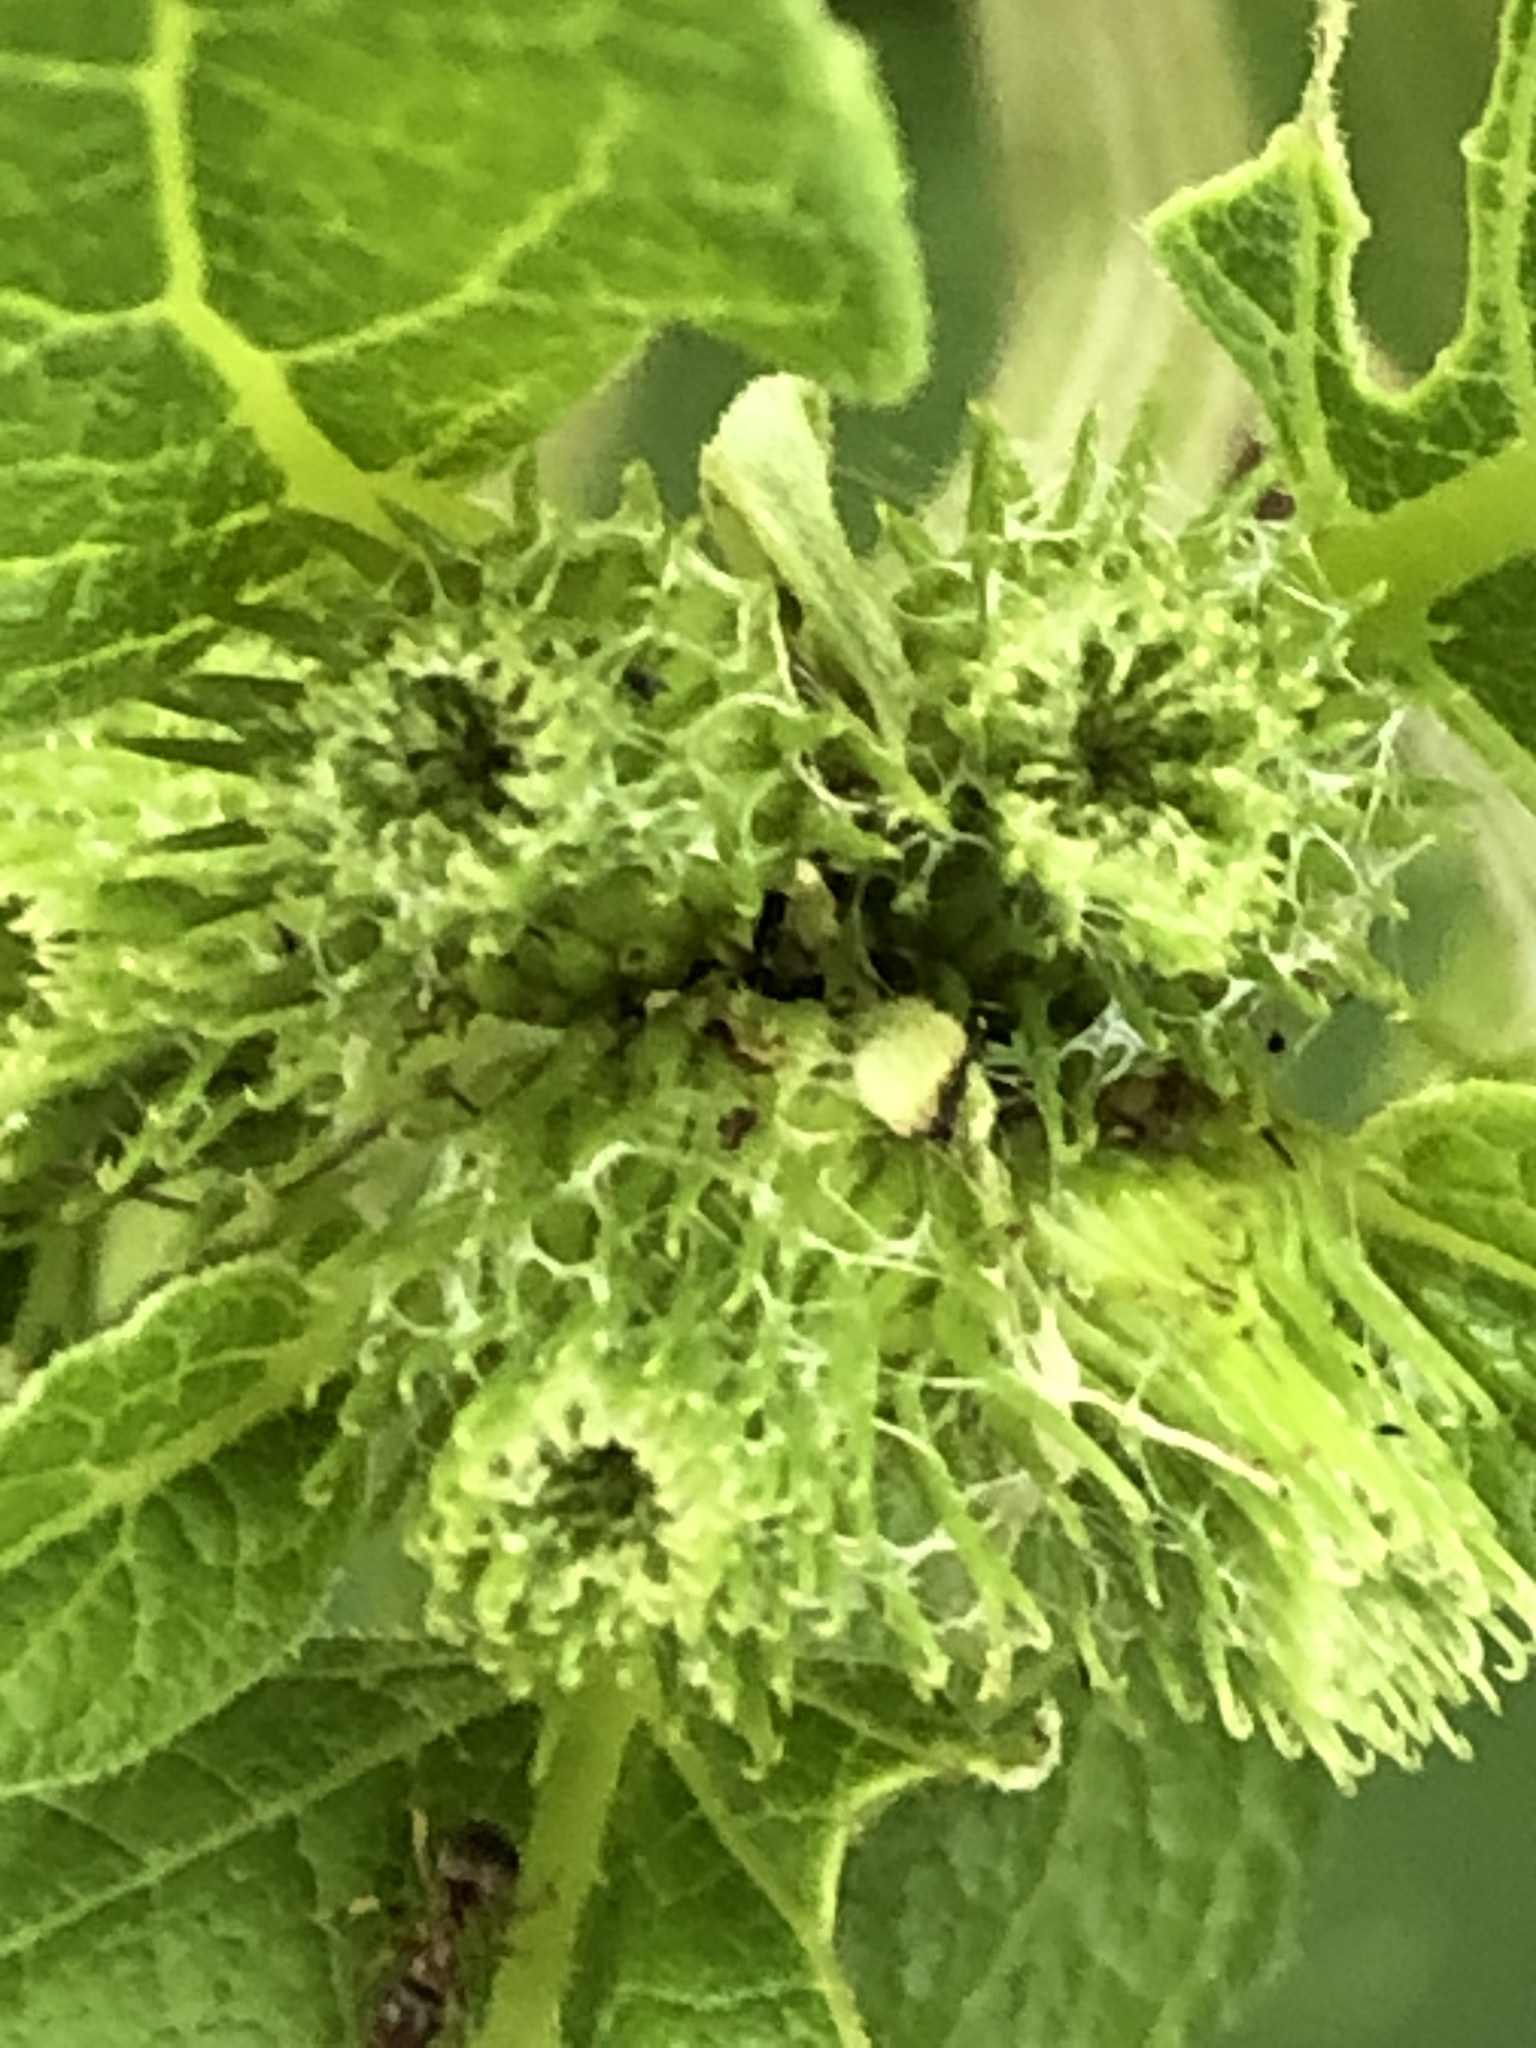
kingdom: Plantae
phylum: Tracheophyta
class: Magnoliopsida
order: Asterales
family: Asteraceae
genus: Arctium
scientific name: Arctium minus
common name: Lesser burdock
